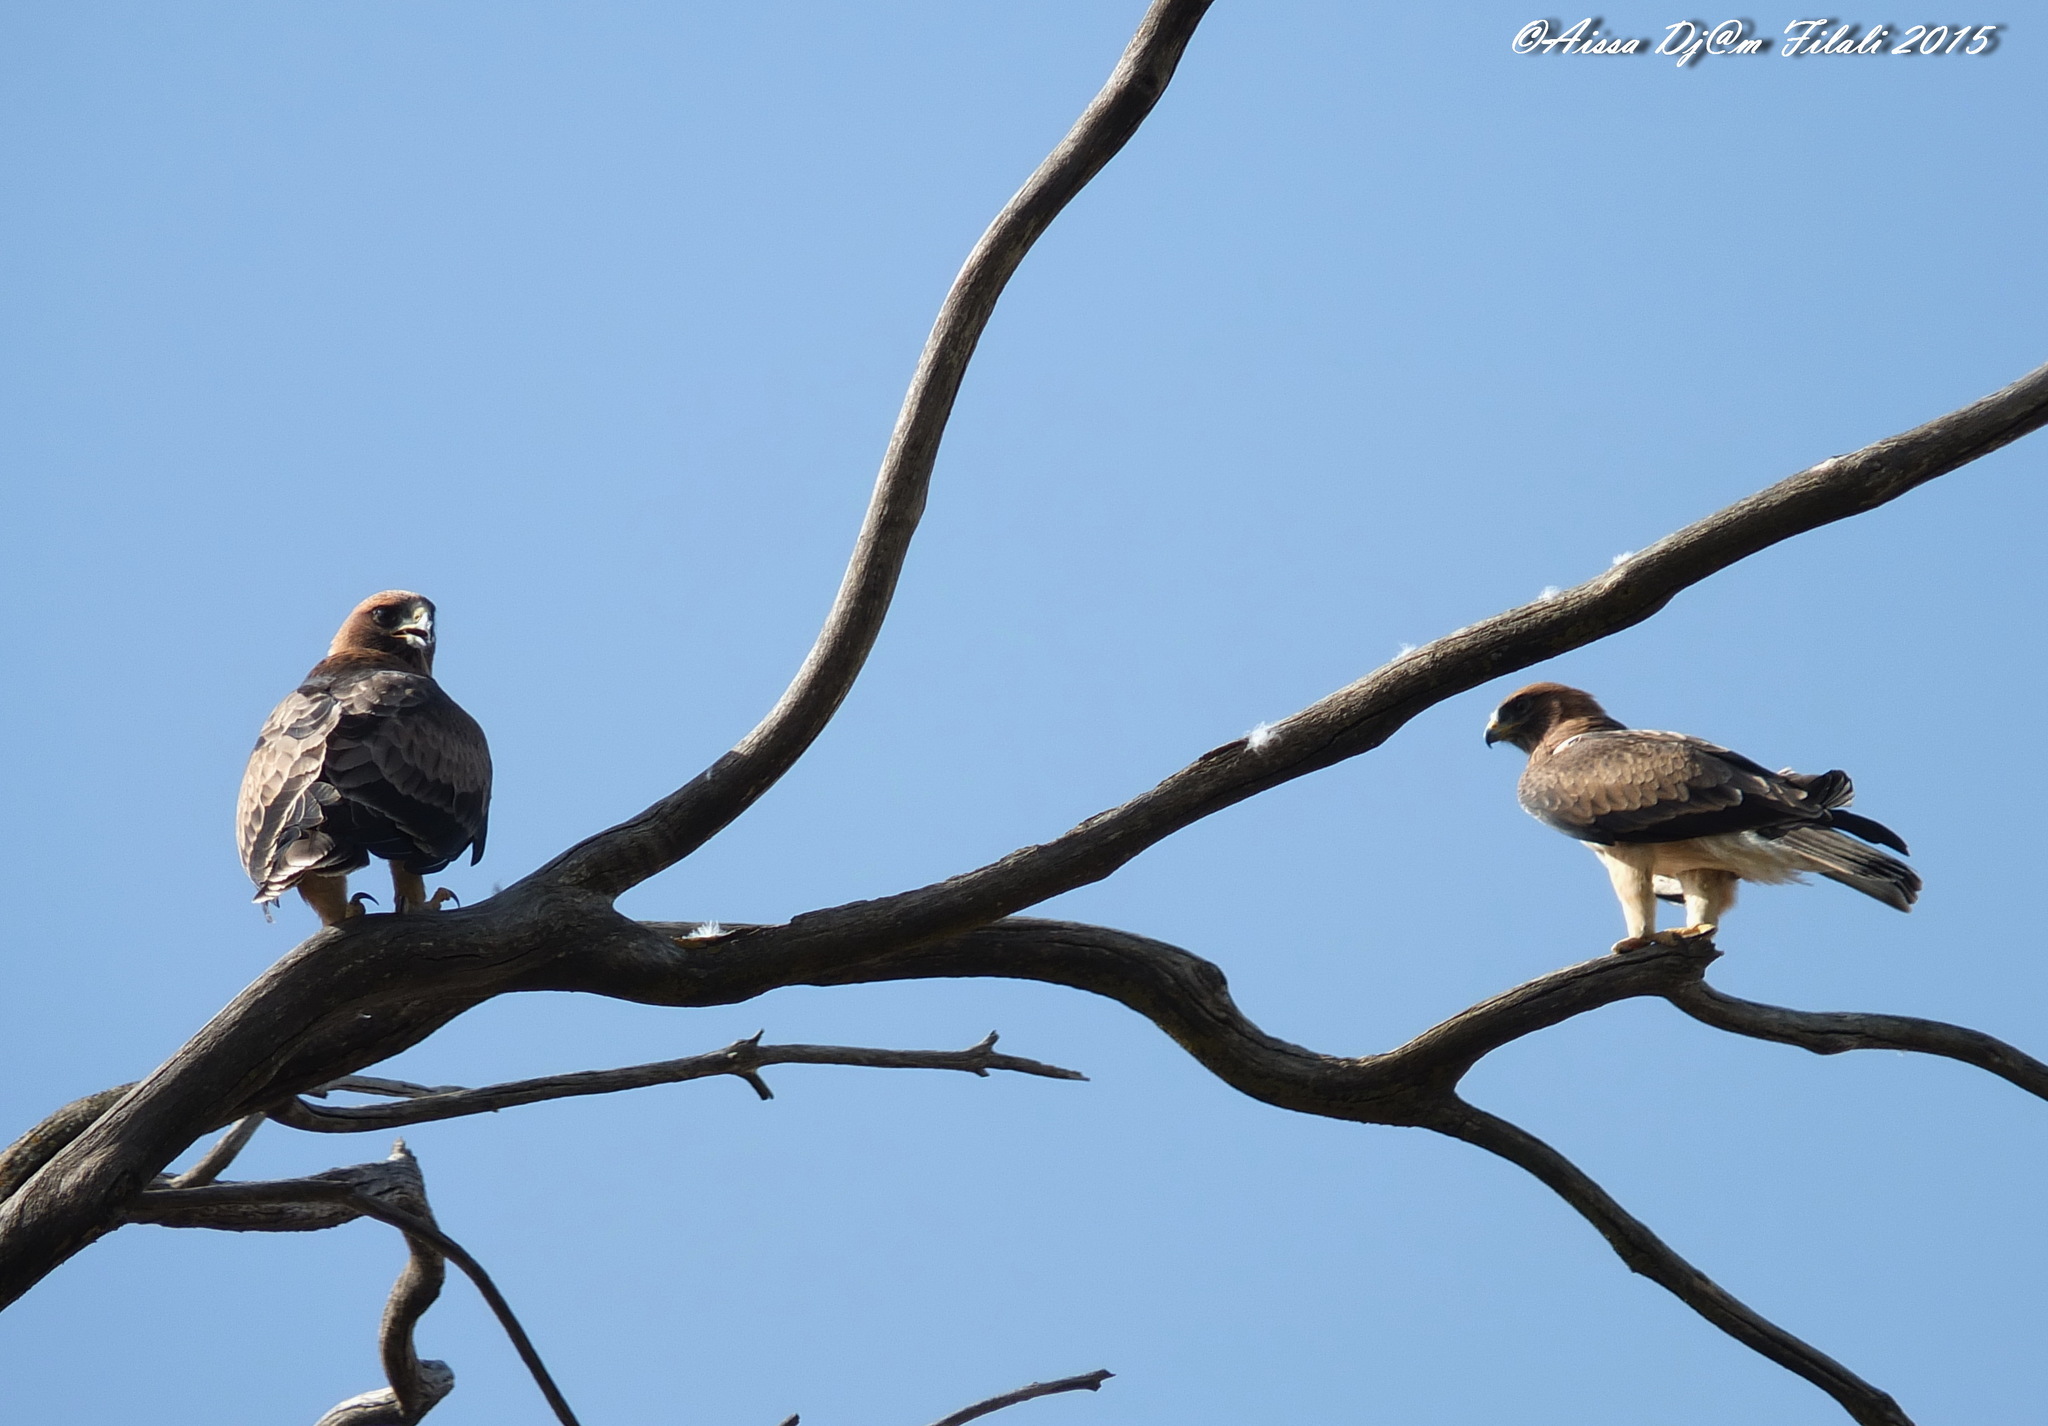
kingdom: Animalia
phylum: Chordata
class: Aves
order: Accipitriformes
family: Accipitridae
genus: Hieraaetus
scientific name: Hieraaetus pennatus
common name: Booted eagle
